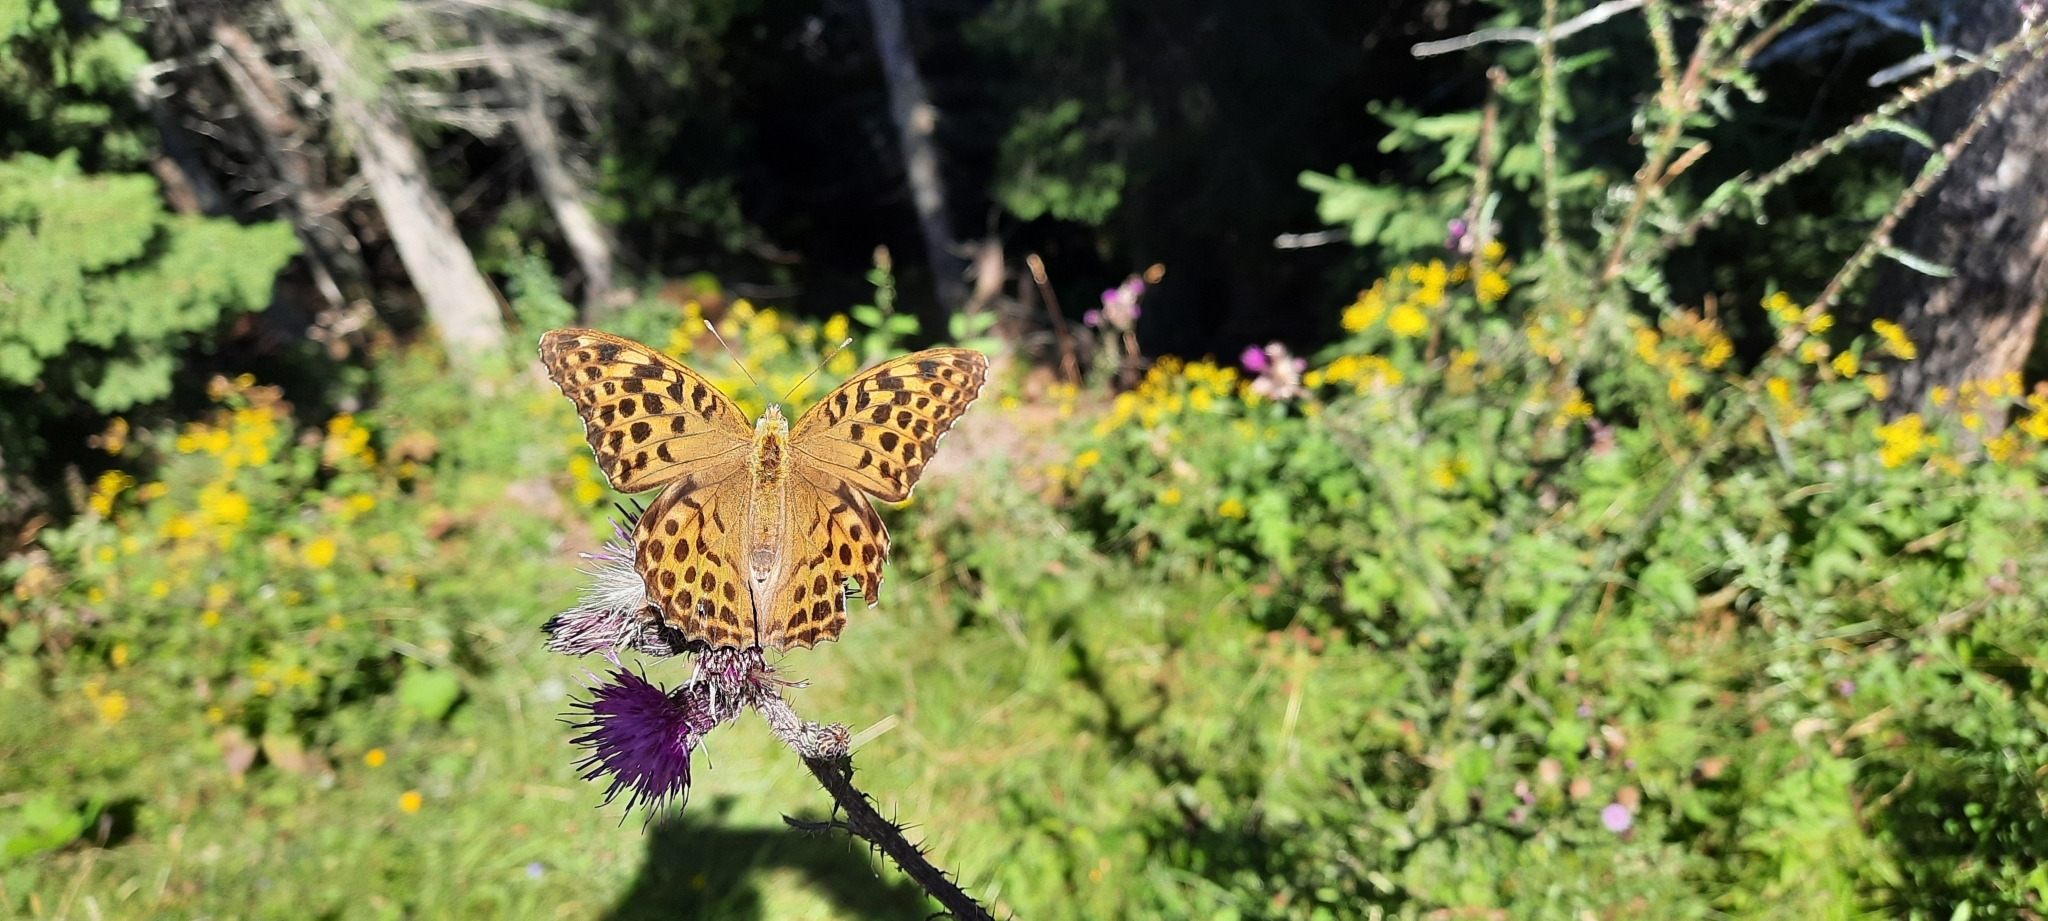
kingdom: Animalia
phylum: Arthropoda
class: Insecta
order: Lepidoptera
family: Nymphalidae
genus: Argynnis
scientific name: Argynnis paphia
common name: Silver-washed fritillary
